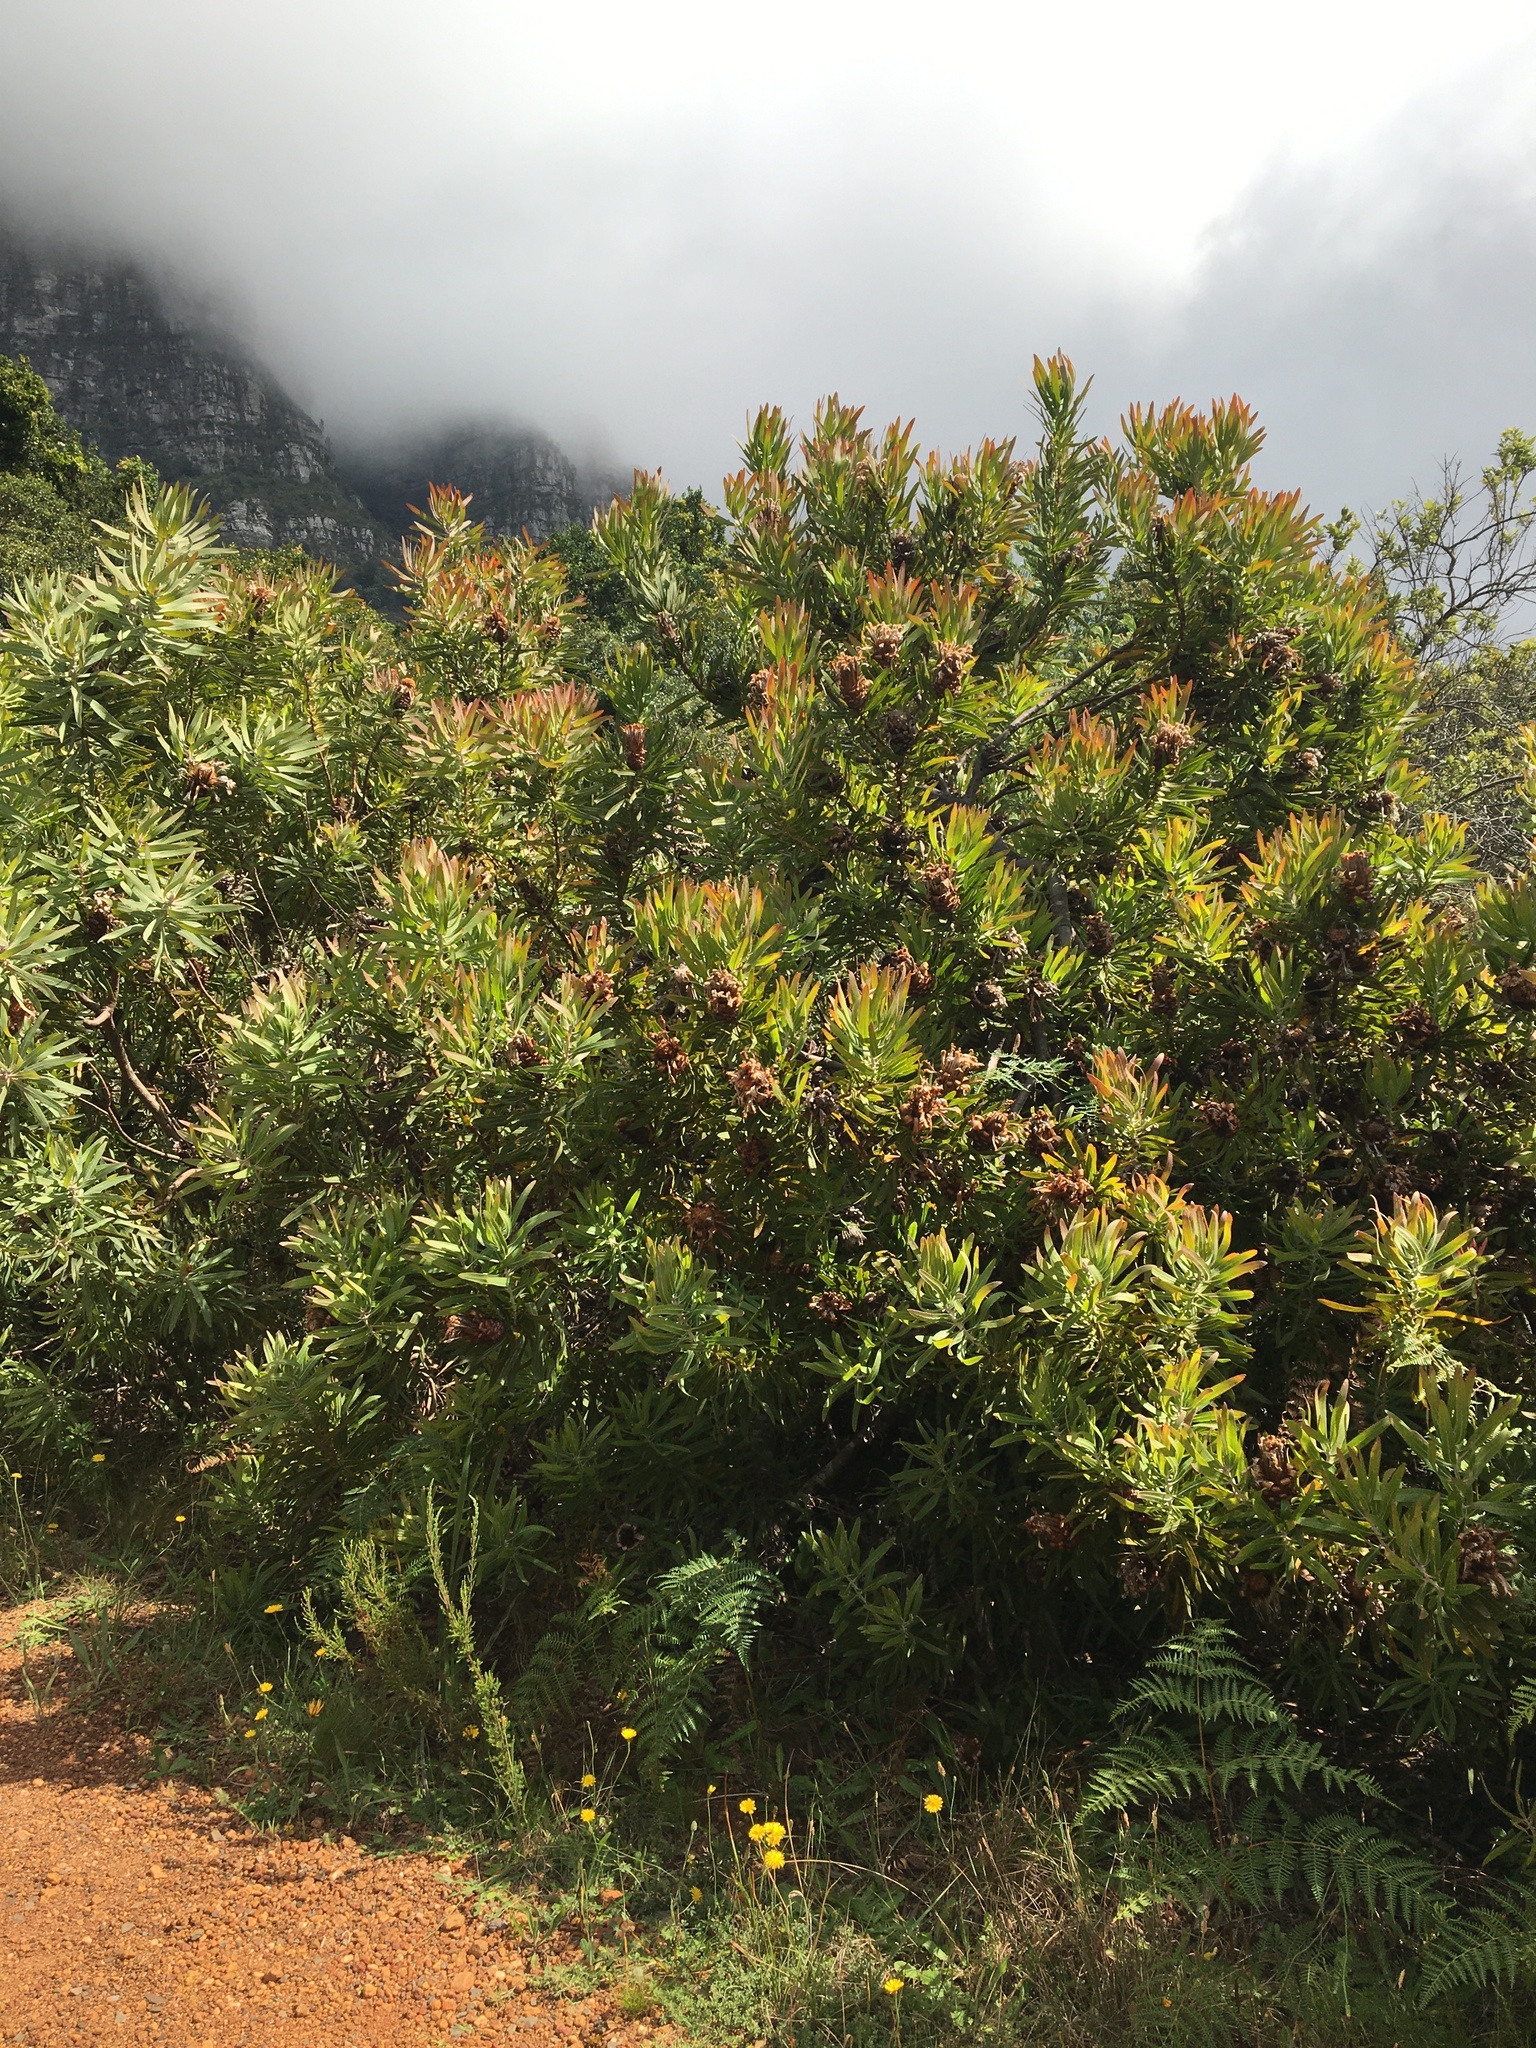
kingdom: Plantae
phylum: Tracheophyta
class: Magnoliopsida
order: Proteales
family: Proteaceae
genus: Protea
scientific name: Protea neriifolia
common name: Blue sugarbush
